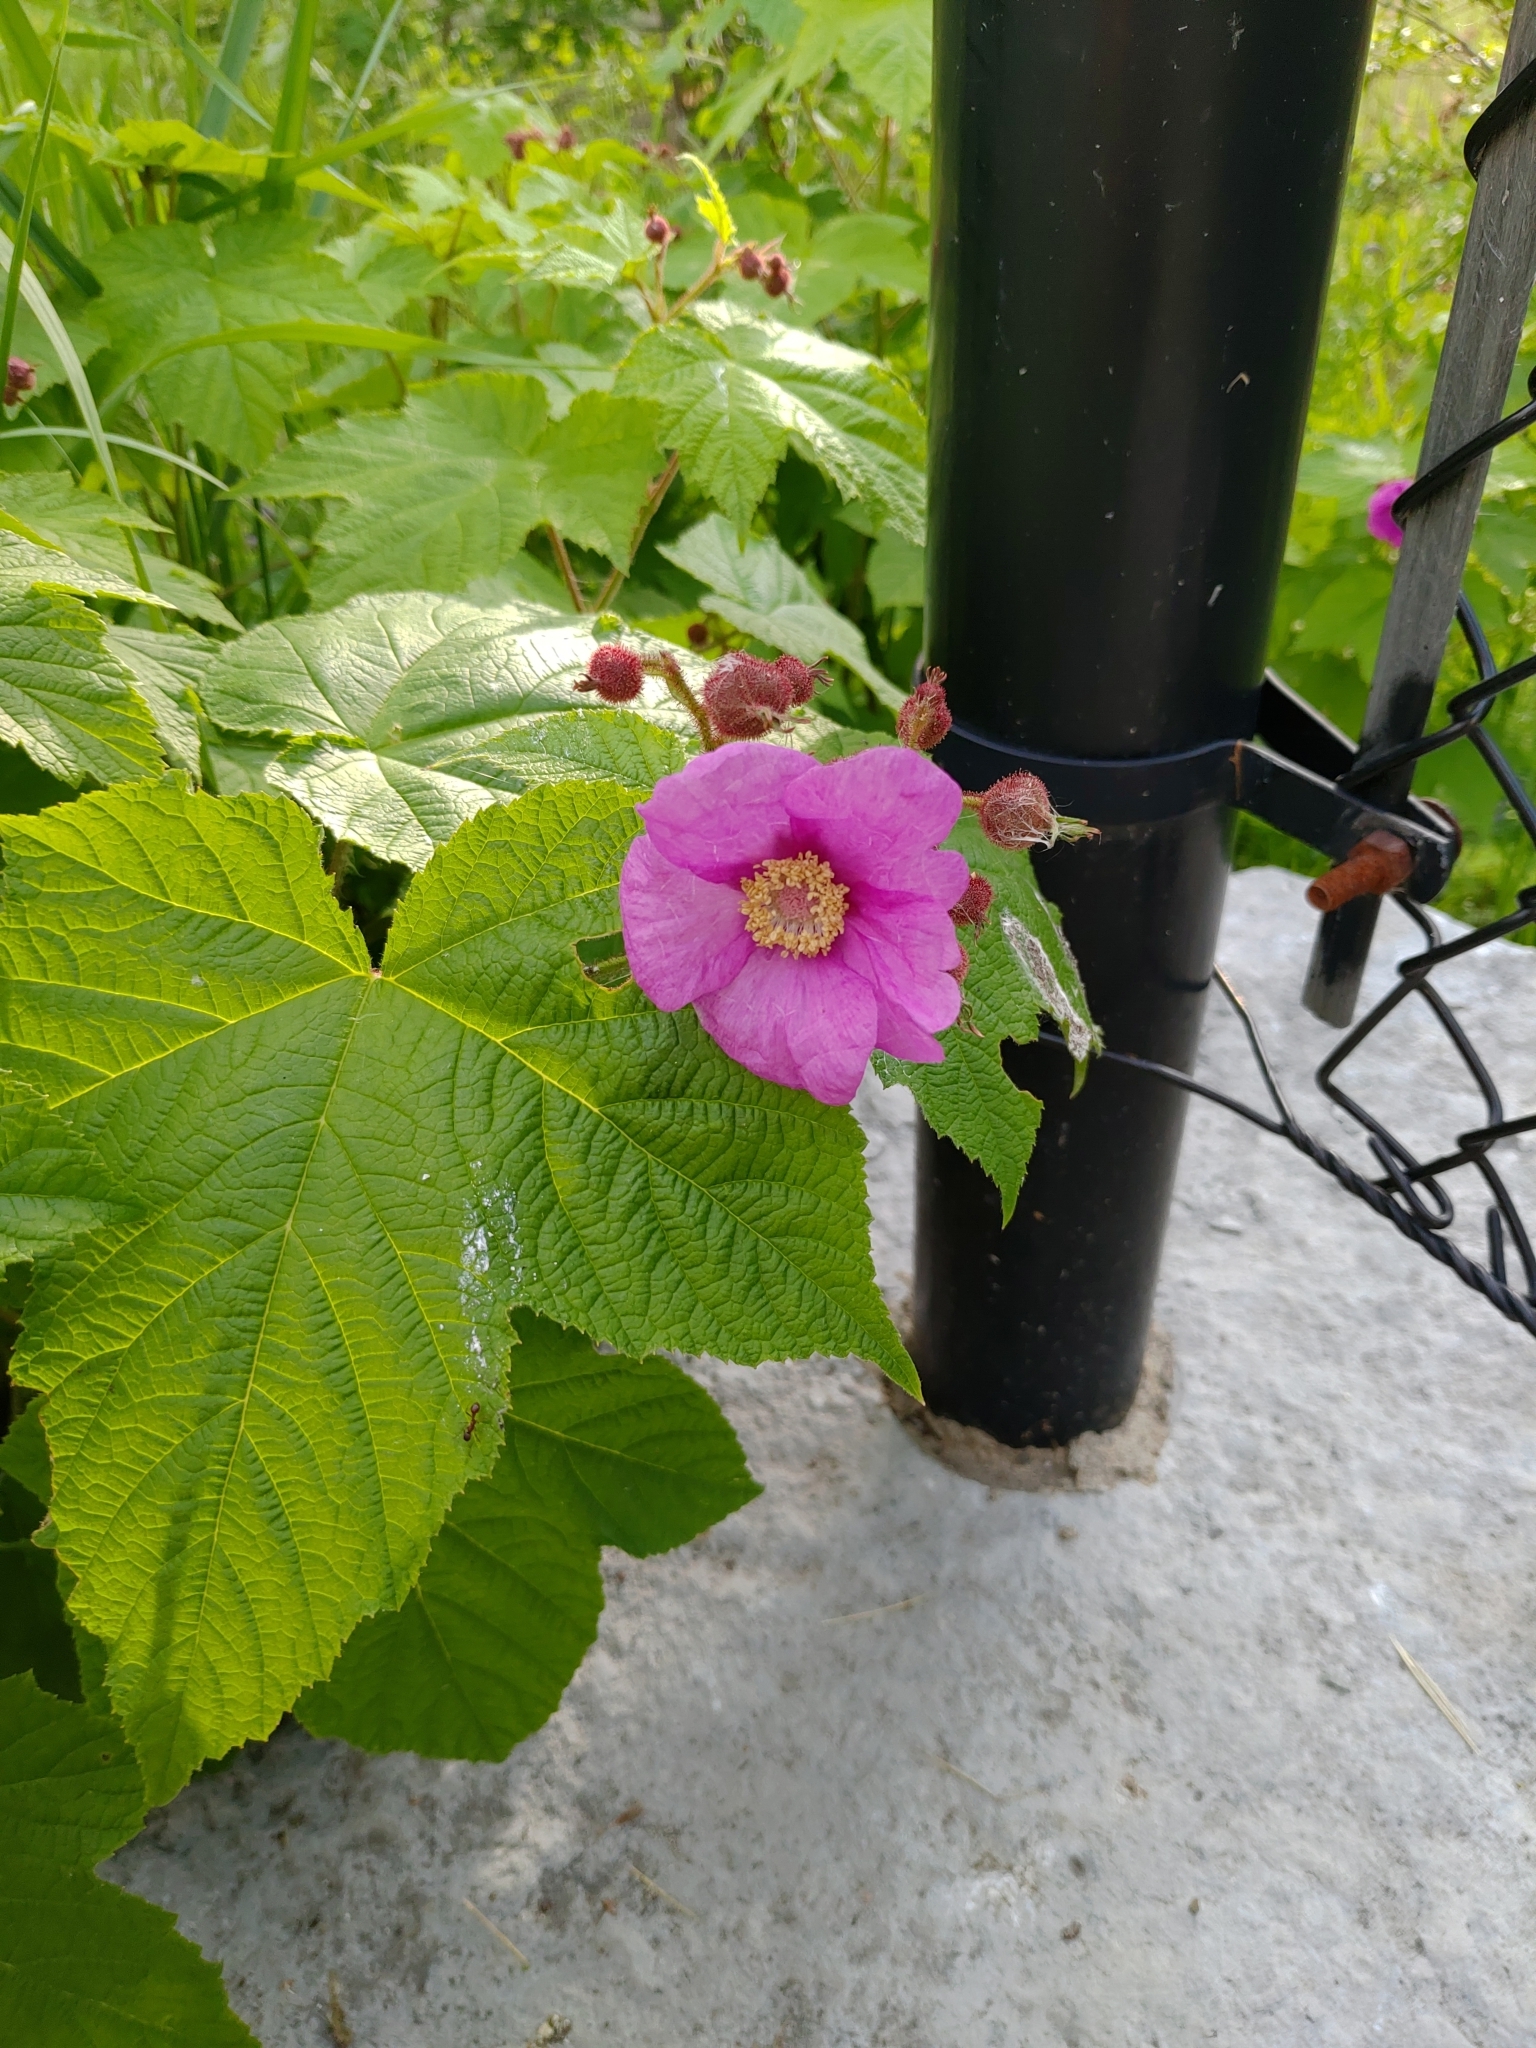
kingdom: Plantae
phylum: Tracheophyta
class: Magnoliopsida
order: Rosales
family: Rosaceae
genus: Rubus
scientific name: Rubus odoratus
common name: Purple-flowered raspberry
